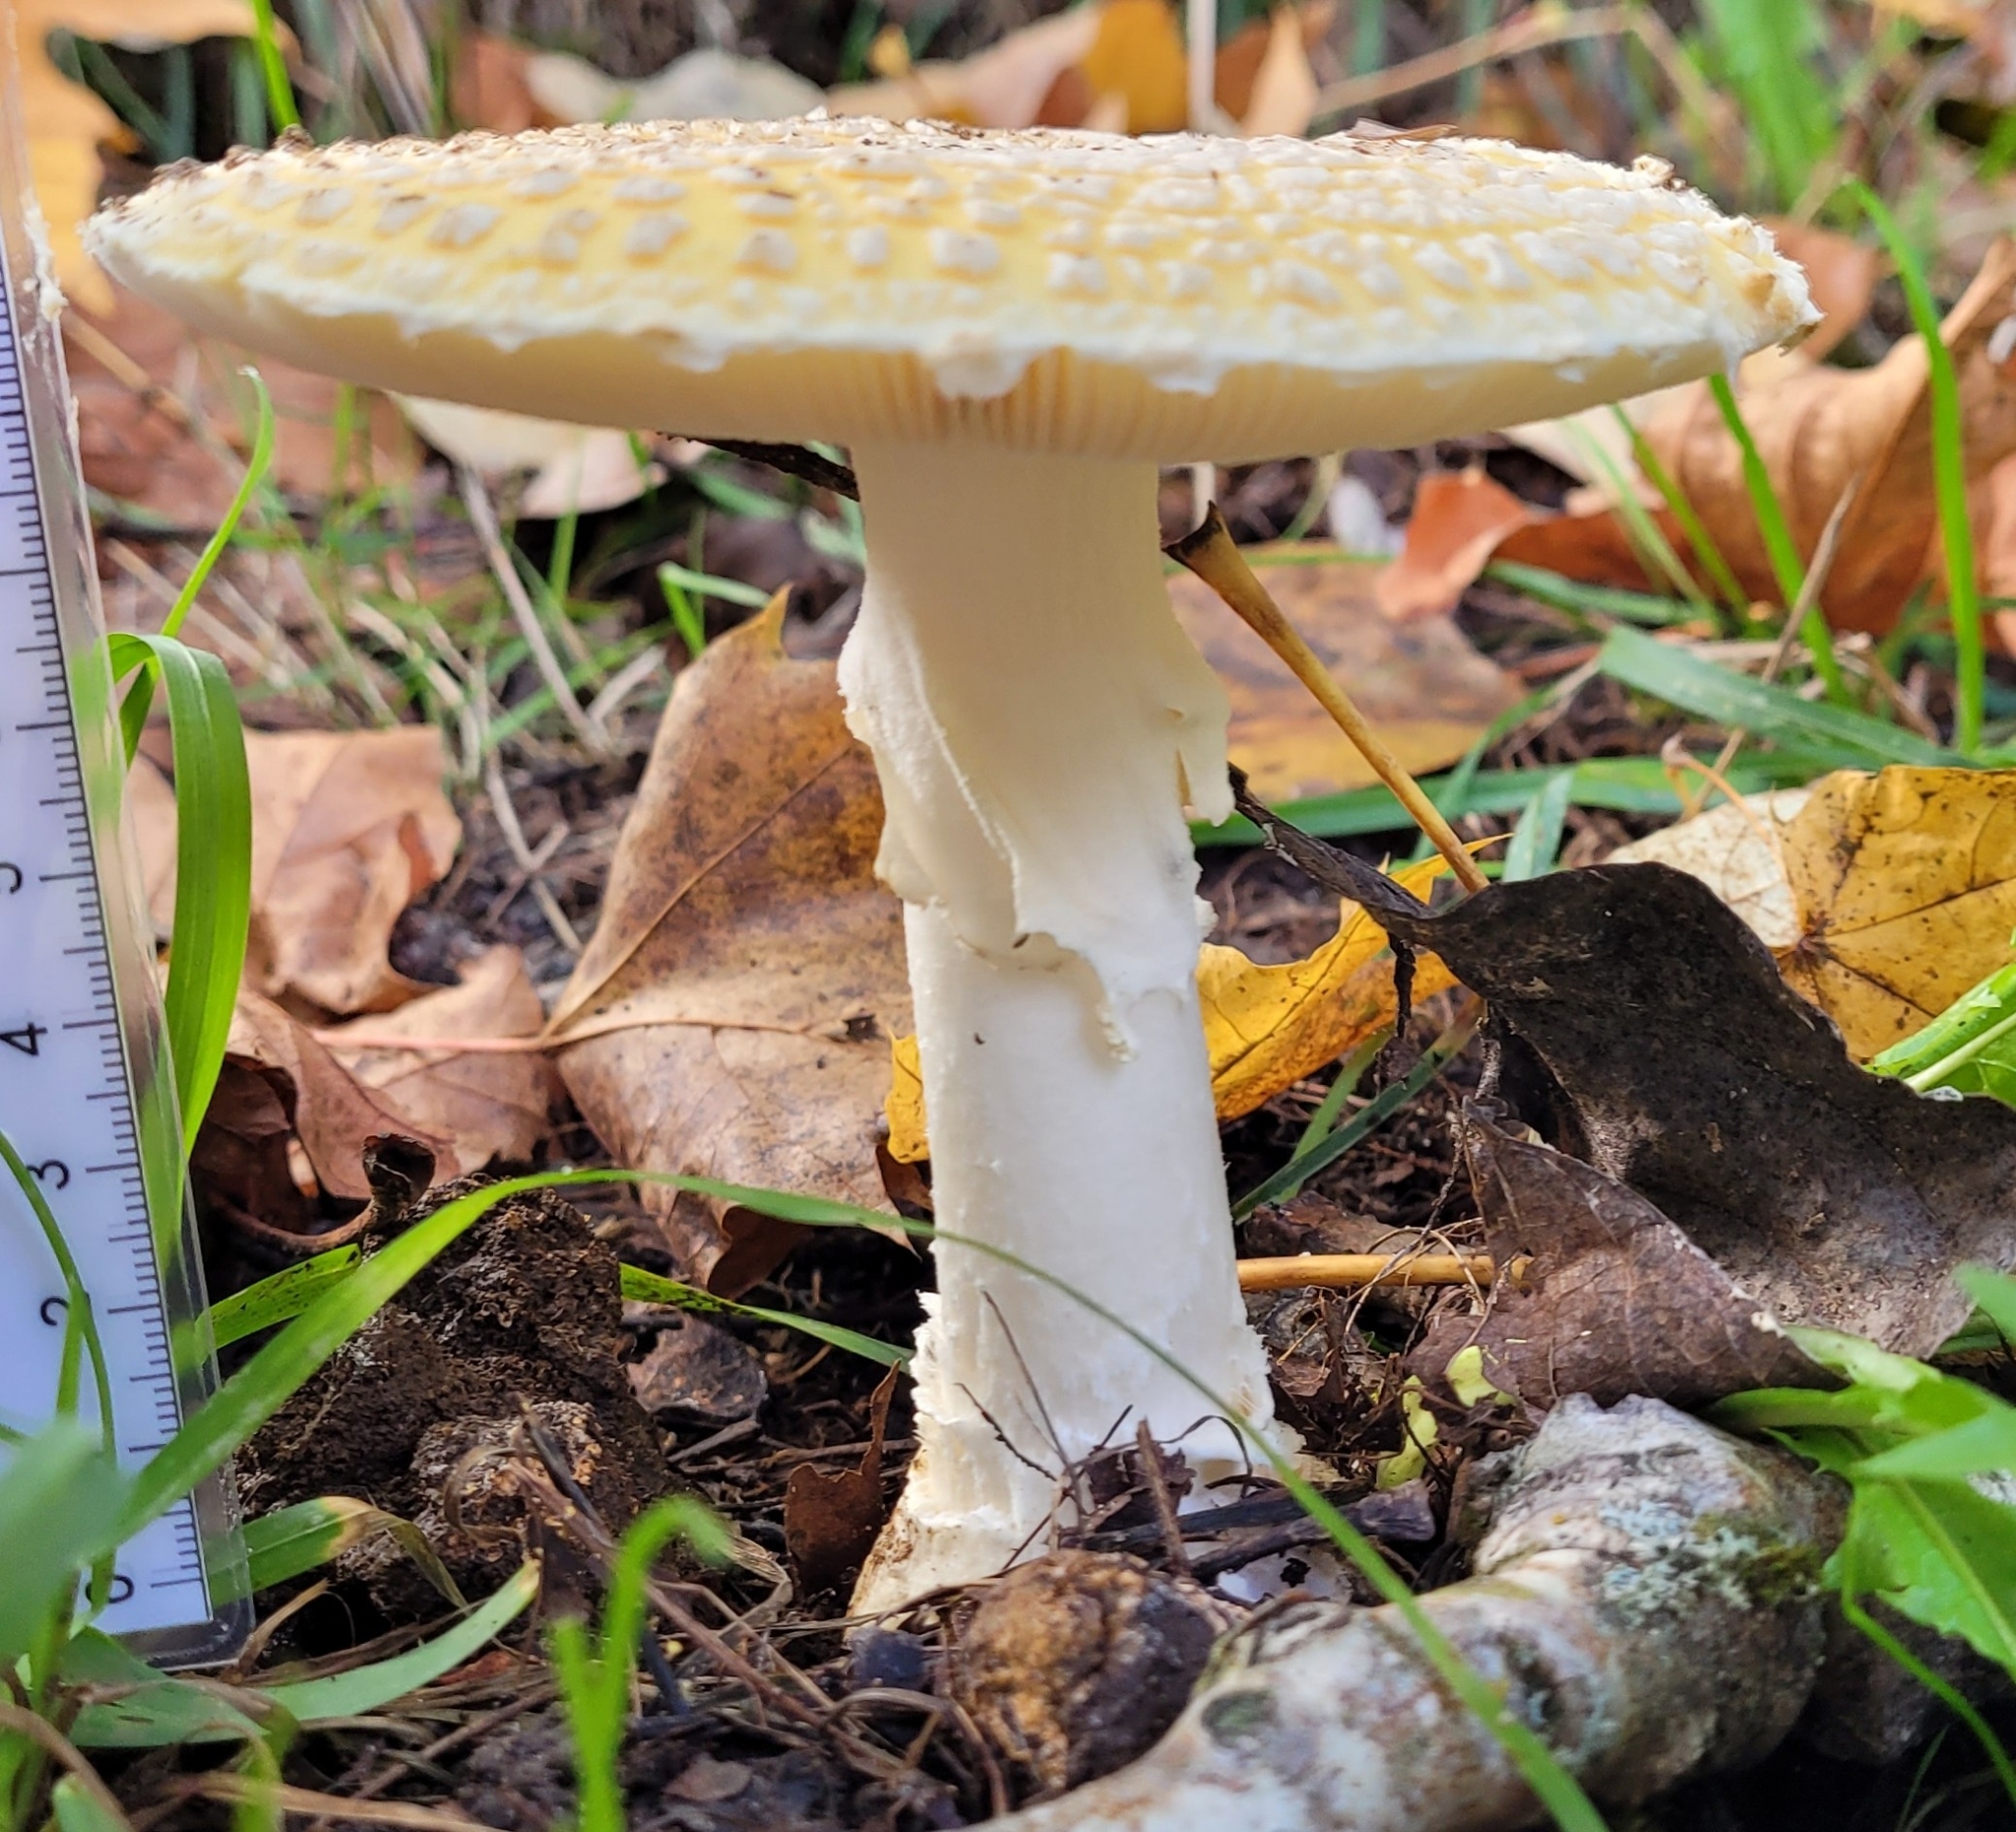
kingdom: Fungi
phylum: Basidiomycota
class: Agaricomycetes
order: Agaricales
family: Amanitaceae
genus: Amanita
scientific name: Amanita muscaria
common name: Fly agaric
